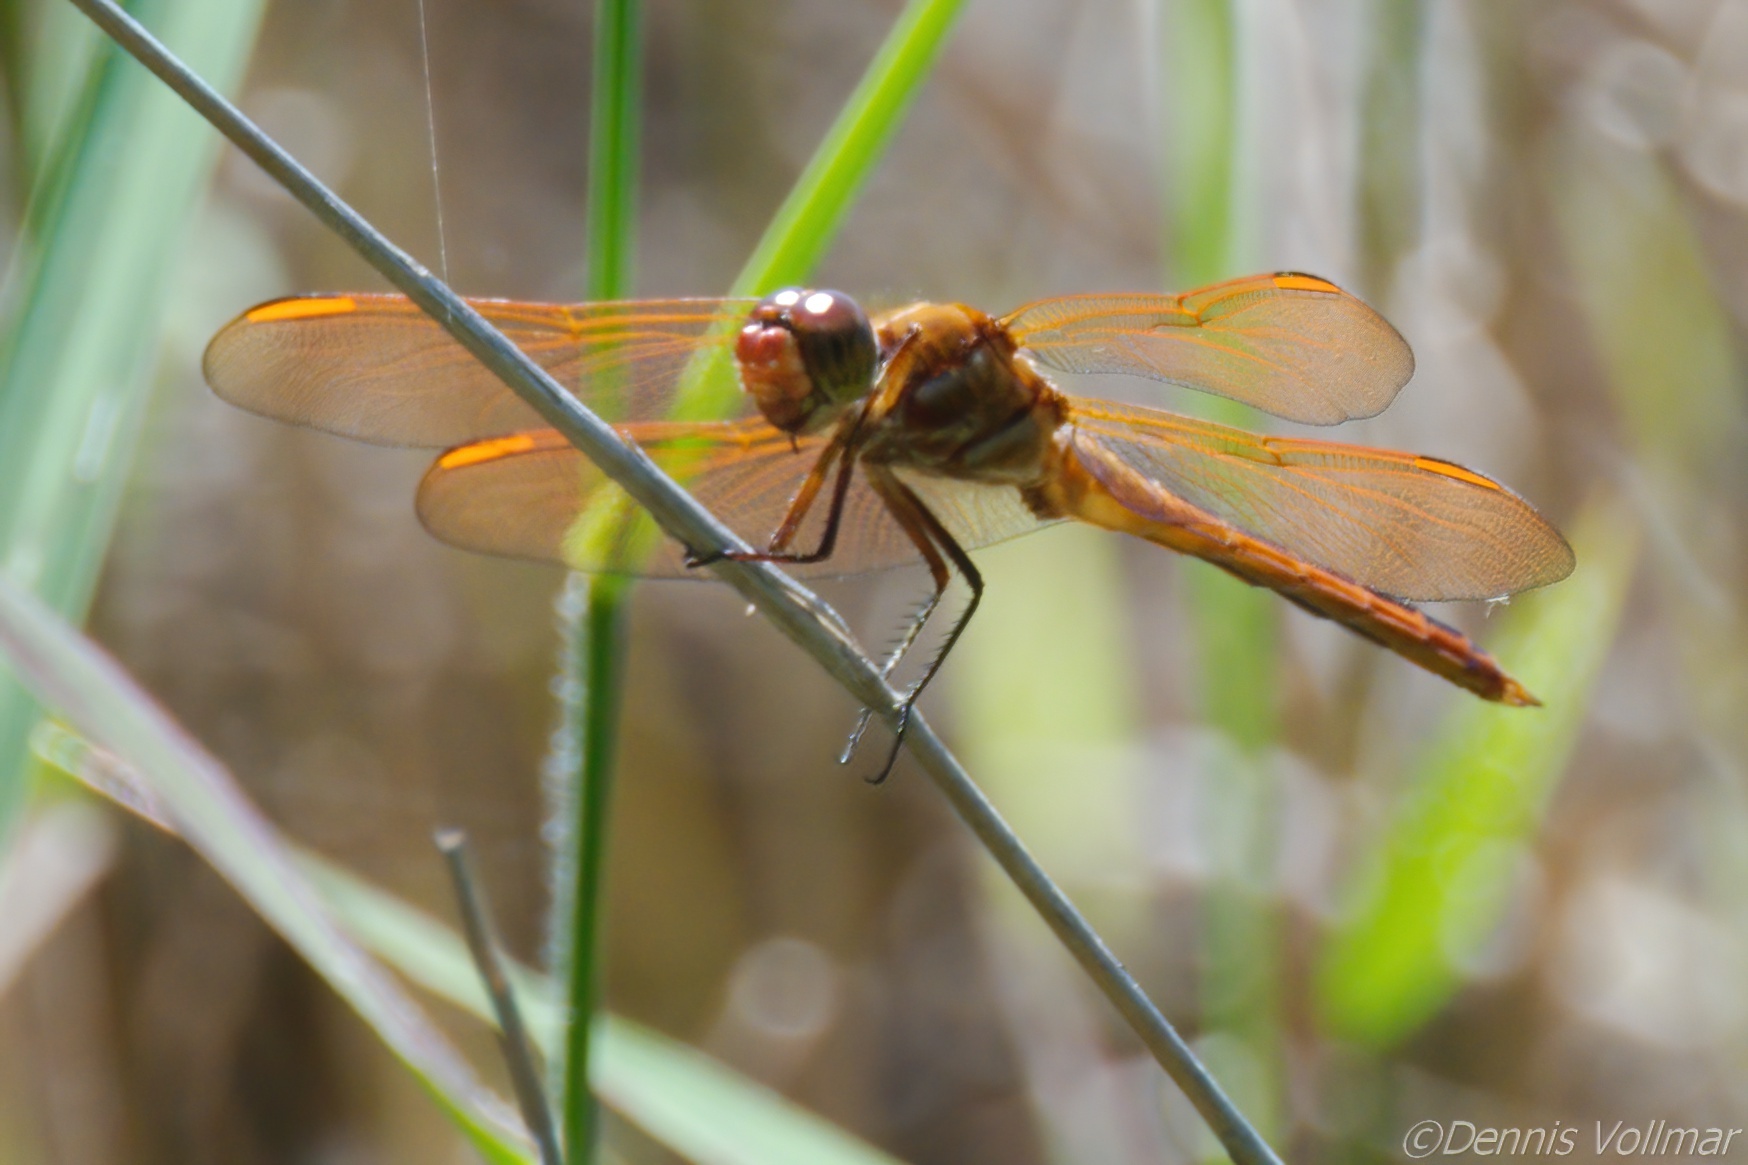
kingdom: Animalia
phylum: Arthropoda
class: Insecta
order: Odonata
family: Libellulidae
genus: Libellula
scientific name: Libellula auripennis
